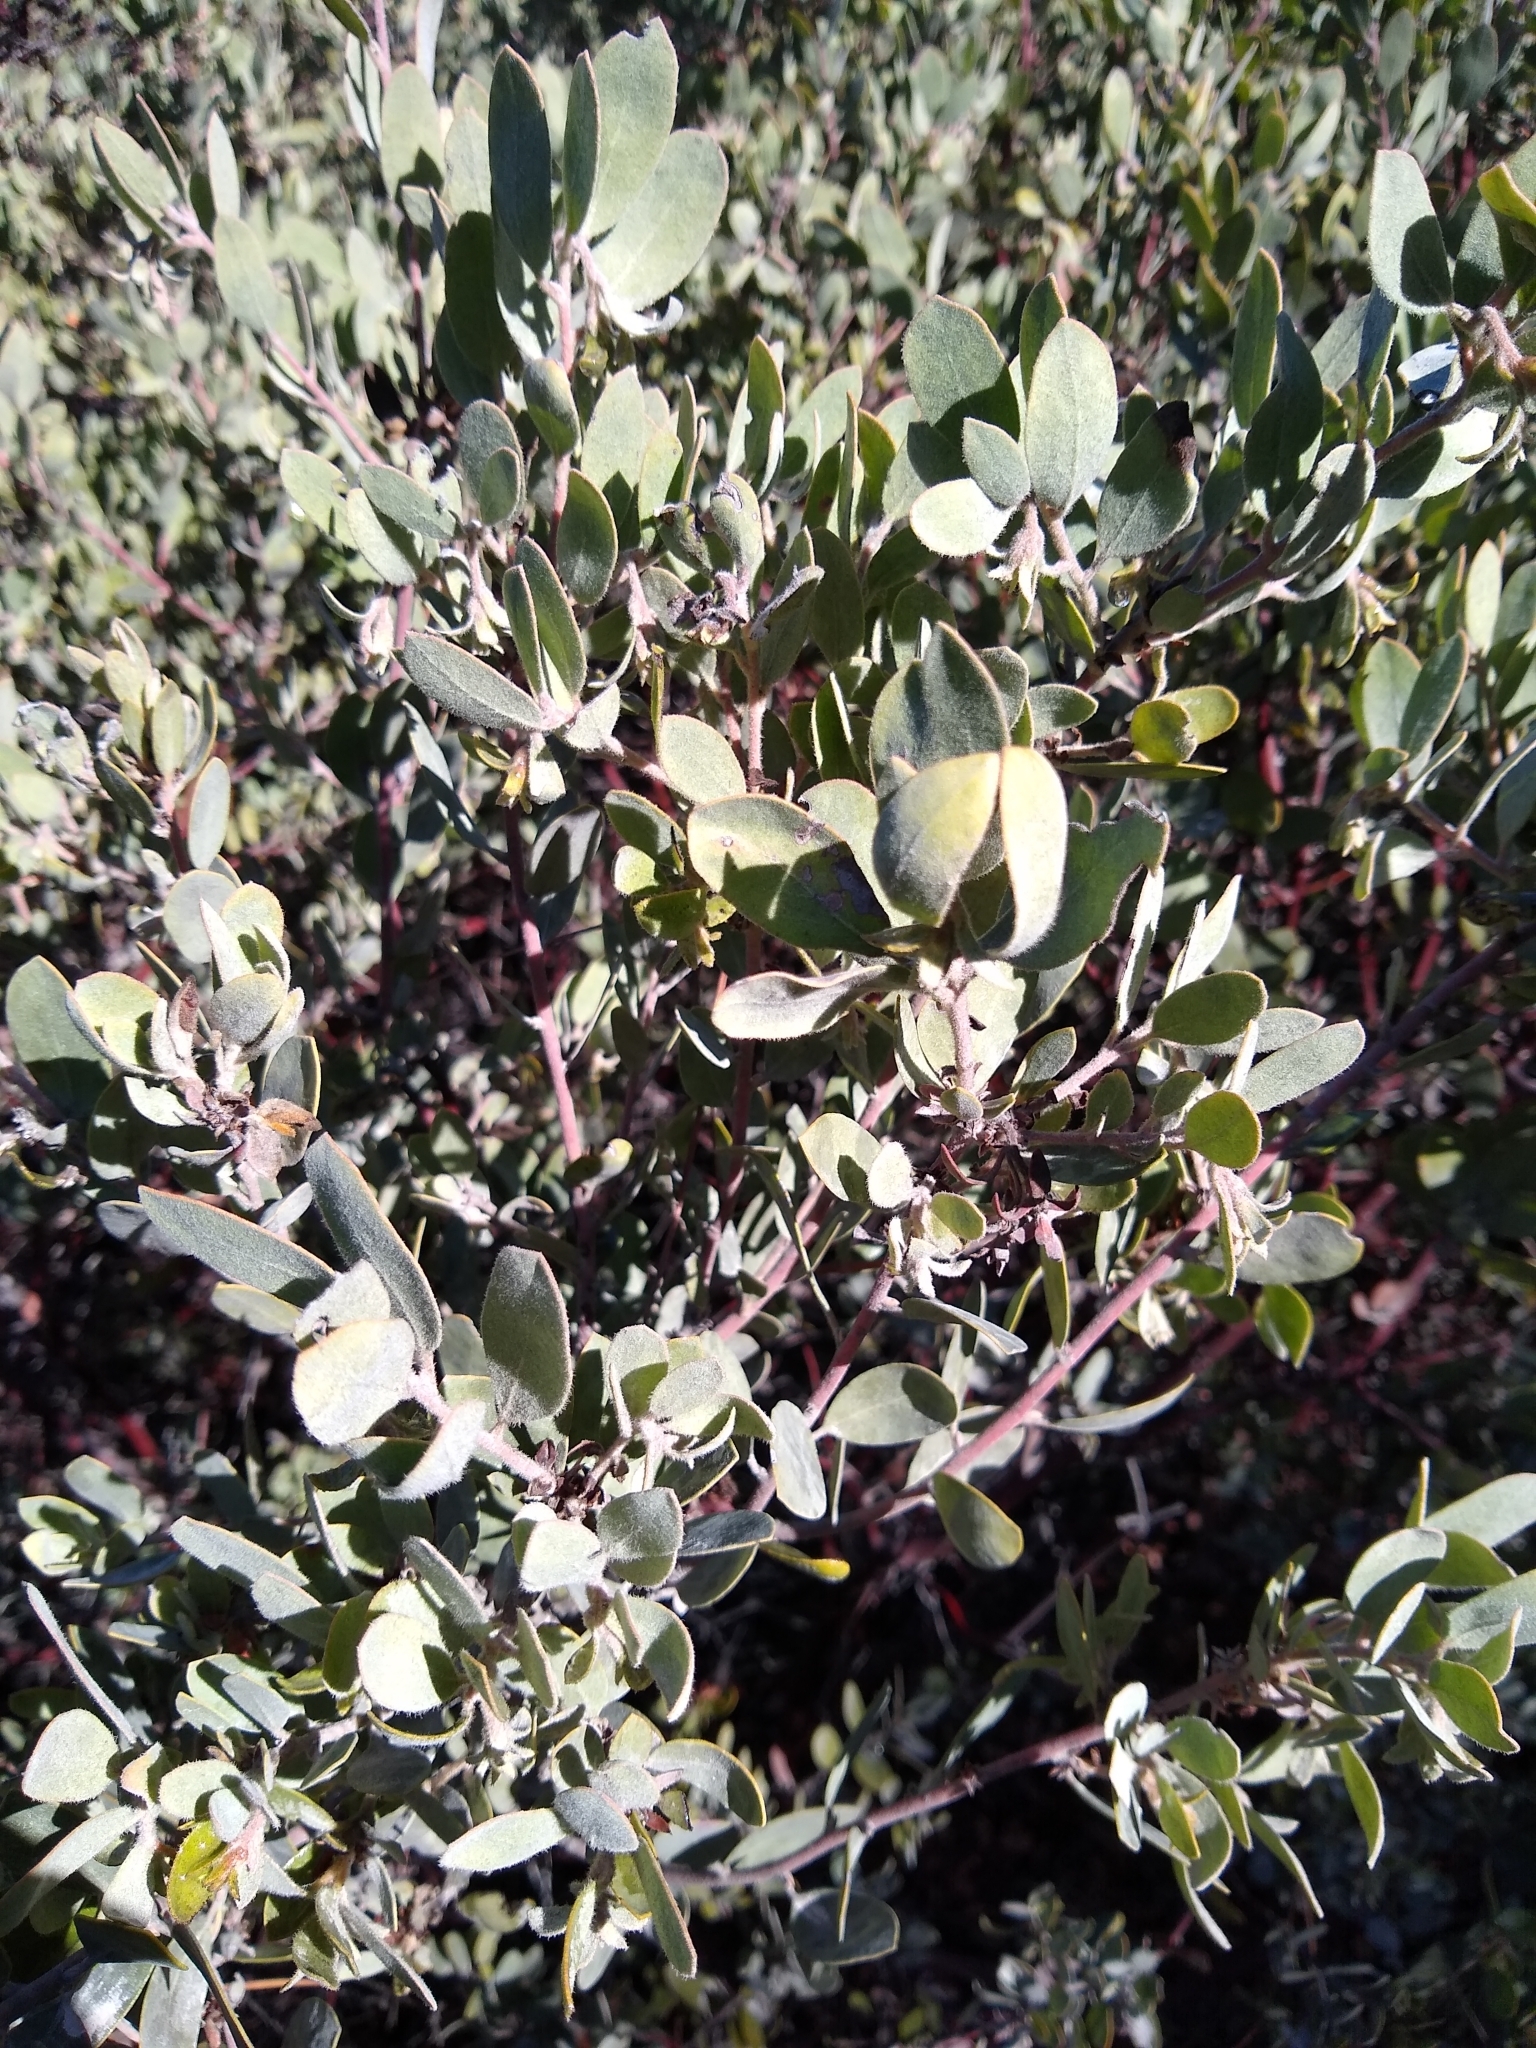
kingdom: Plantae
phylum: Tracheophyta
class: Magnoliopsida
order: Ericales
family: Ericaceae
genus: Arctostaphylos
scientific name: Arctostaphylos silvicola
